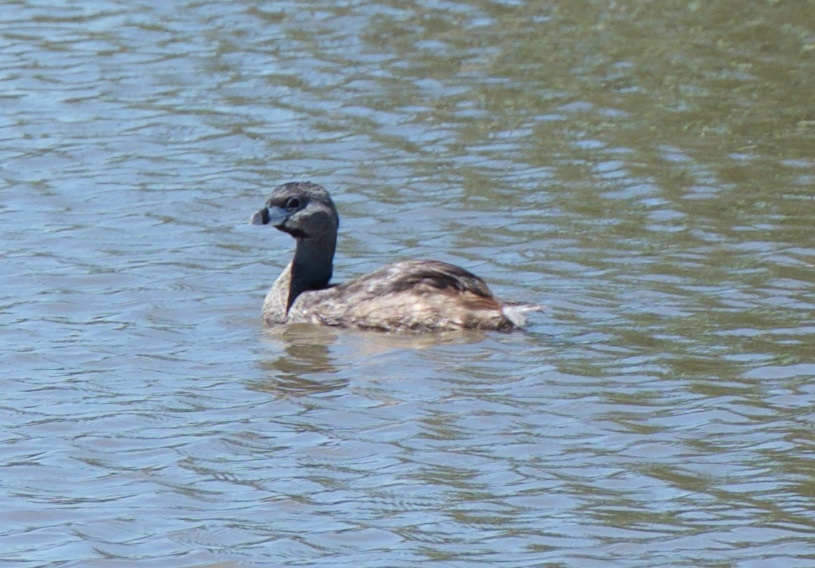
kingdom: Animalia
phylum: Chordata
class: Aves
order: Podicipediformes
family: Podicipedidae
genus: Podilymbus
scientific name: Podilymbus podiceps
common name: Pied-billed grebe
